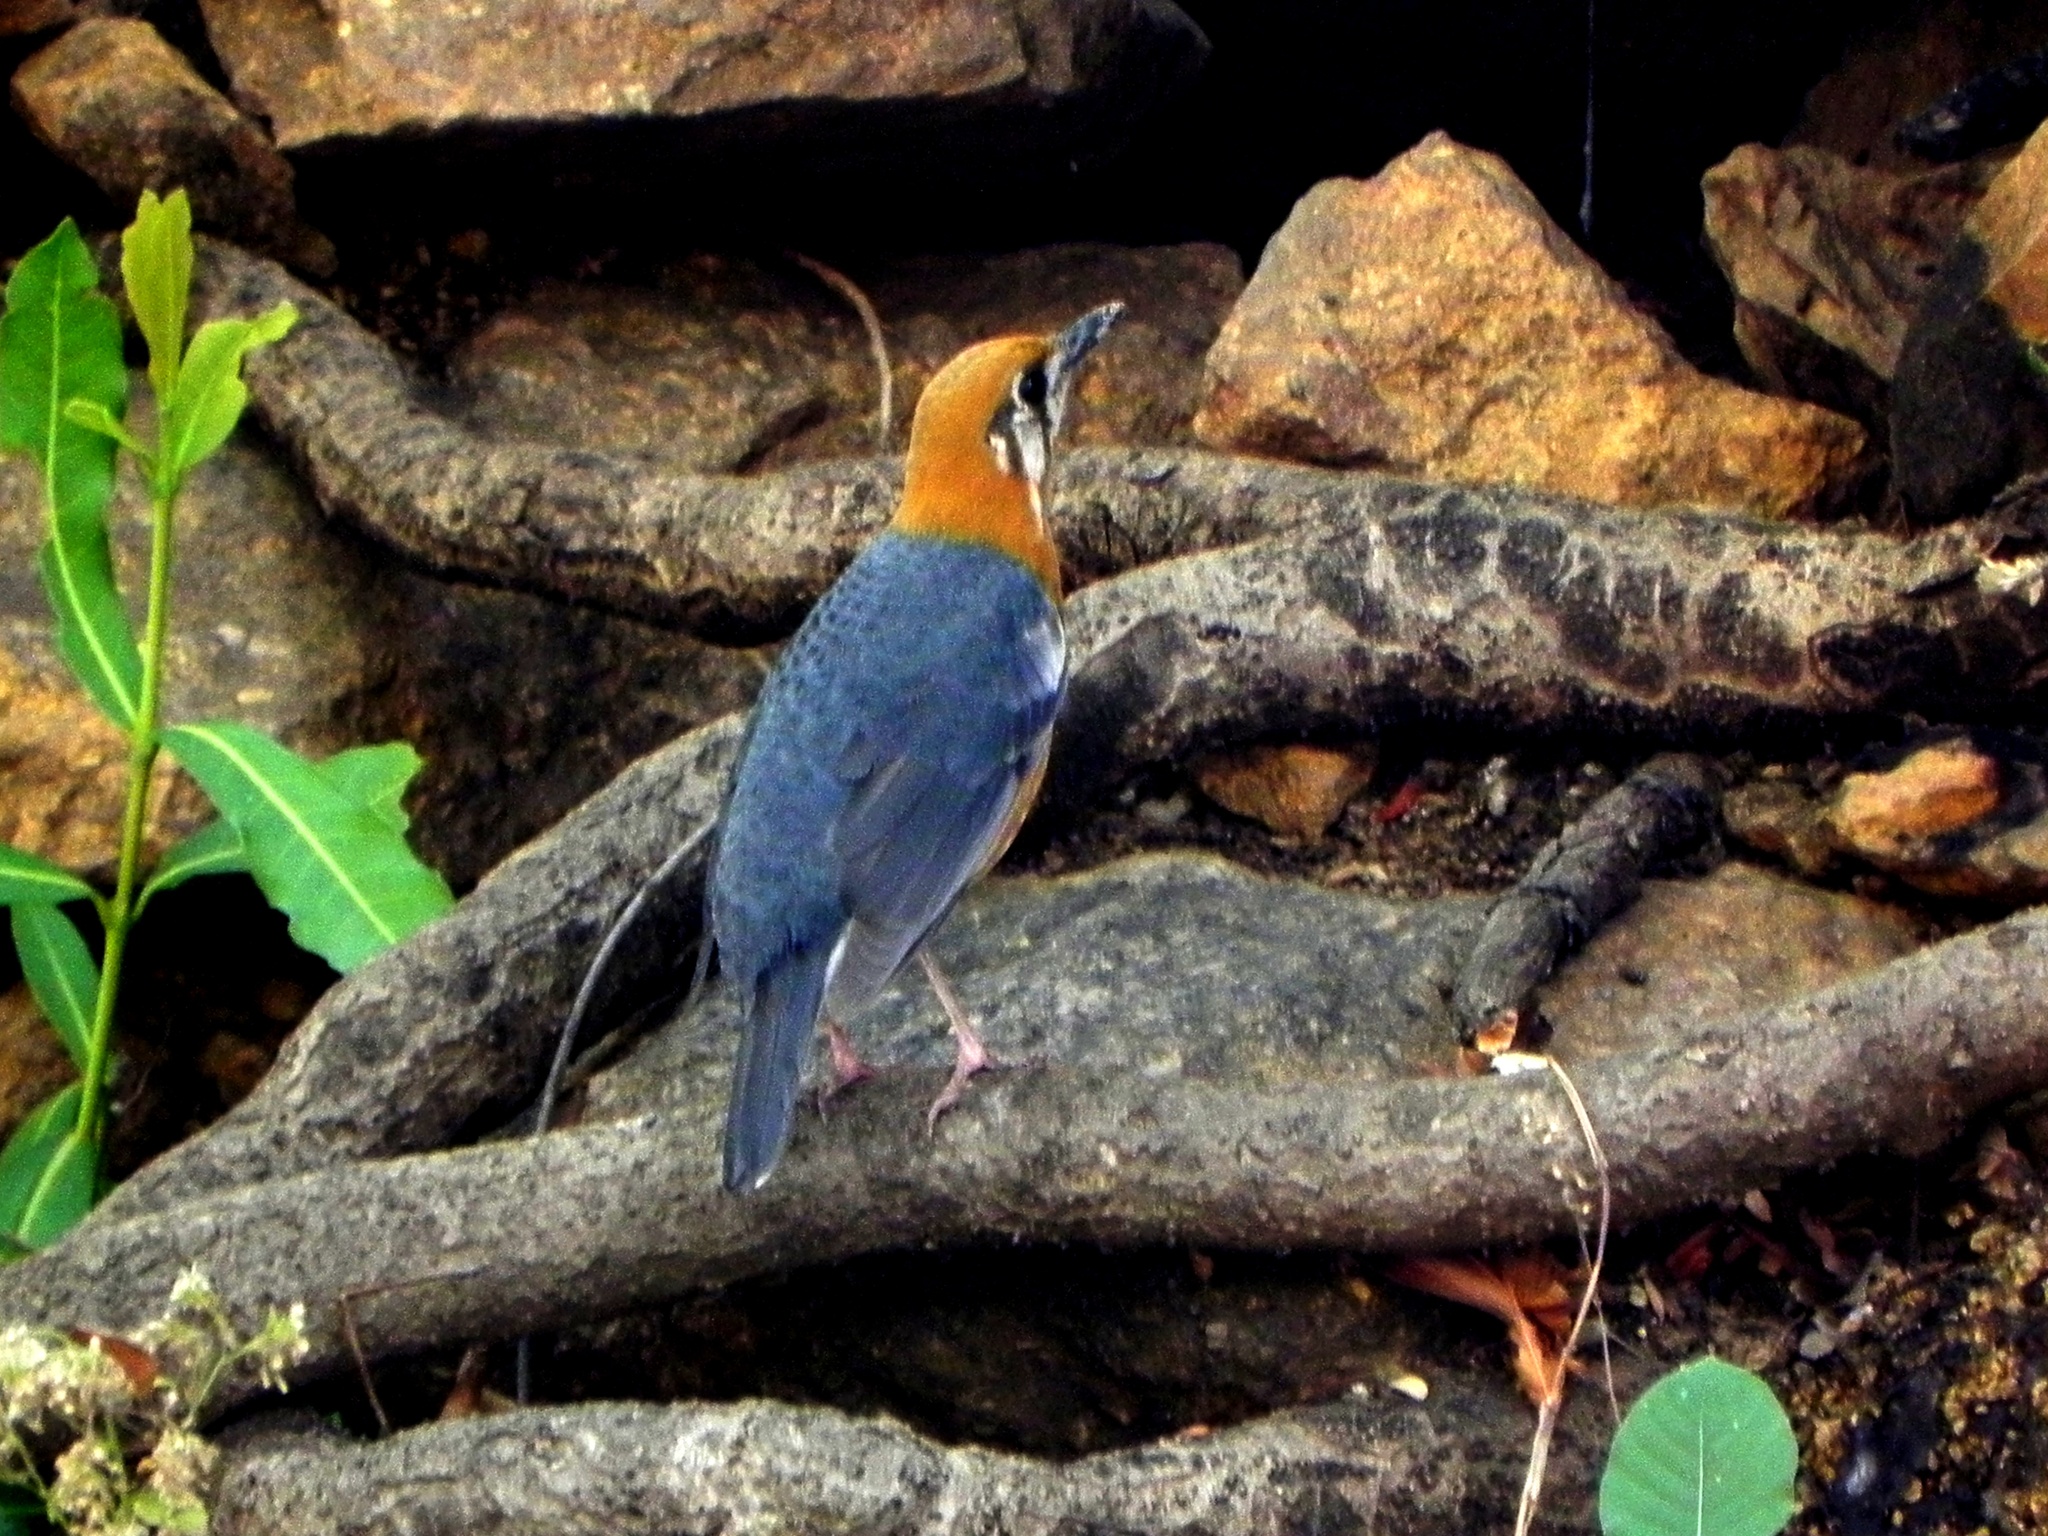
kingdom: Animalia
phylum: Chordata
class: Aves
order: Passeriformes
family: Turdidae
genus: Geokichla
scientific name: Geokichla citrina
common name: Orange-headed thrush
